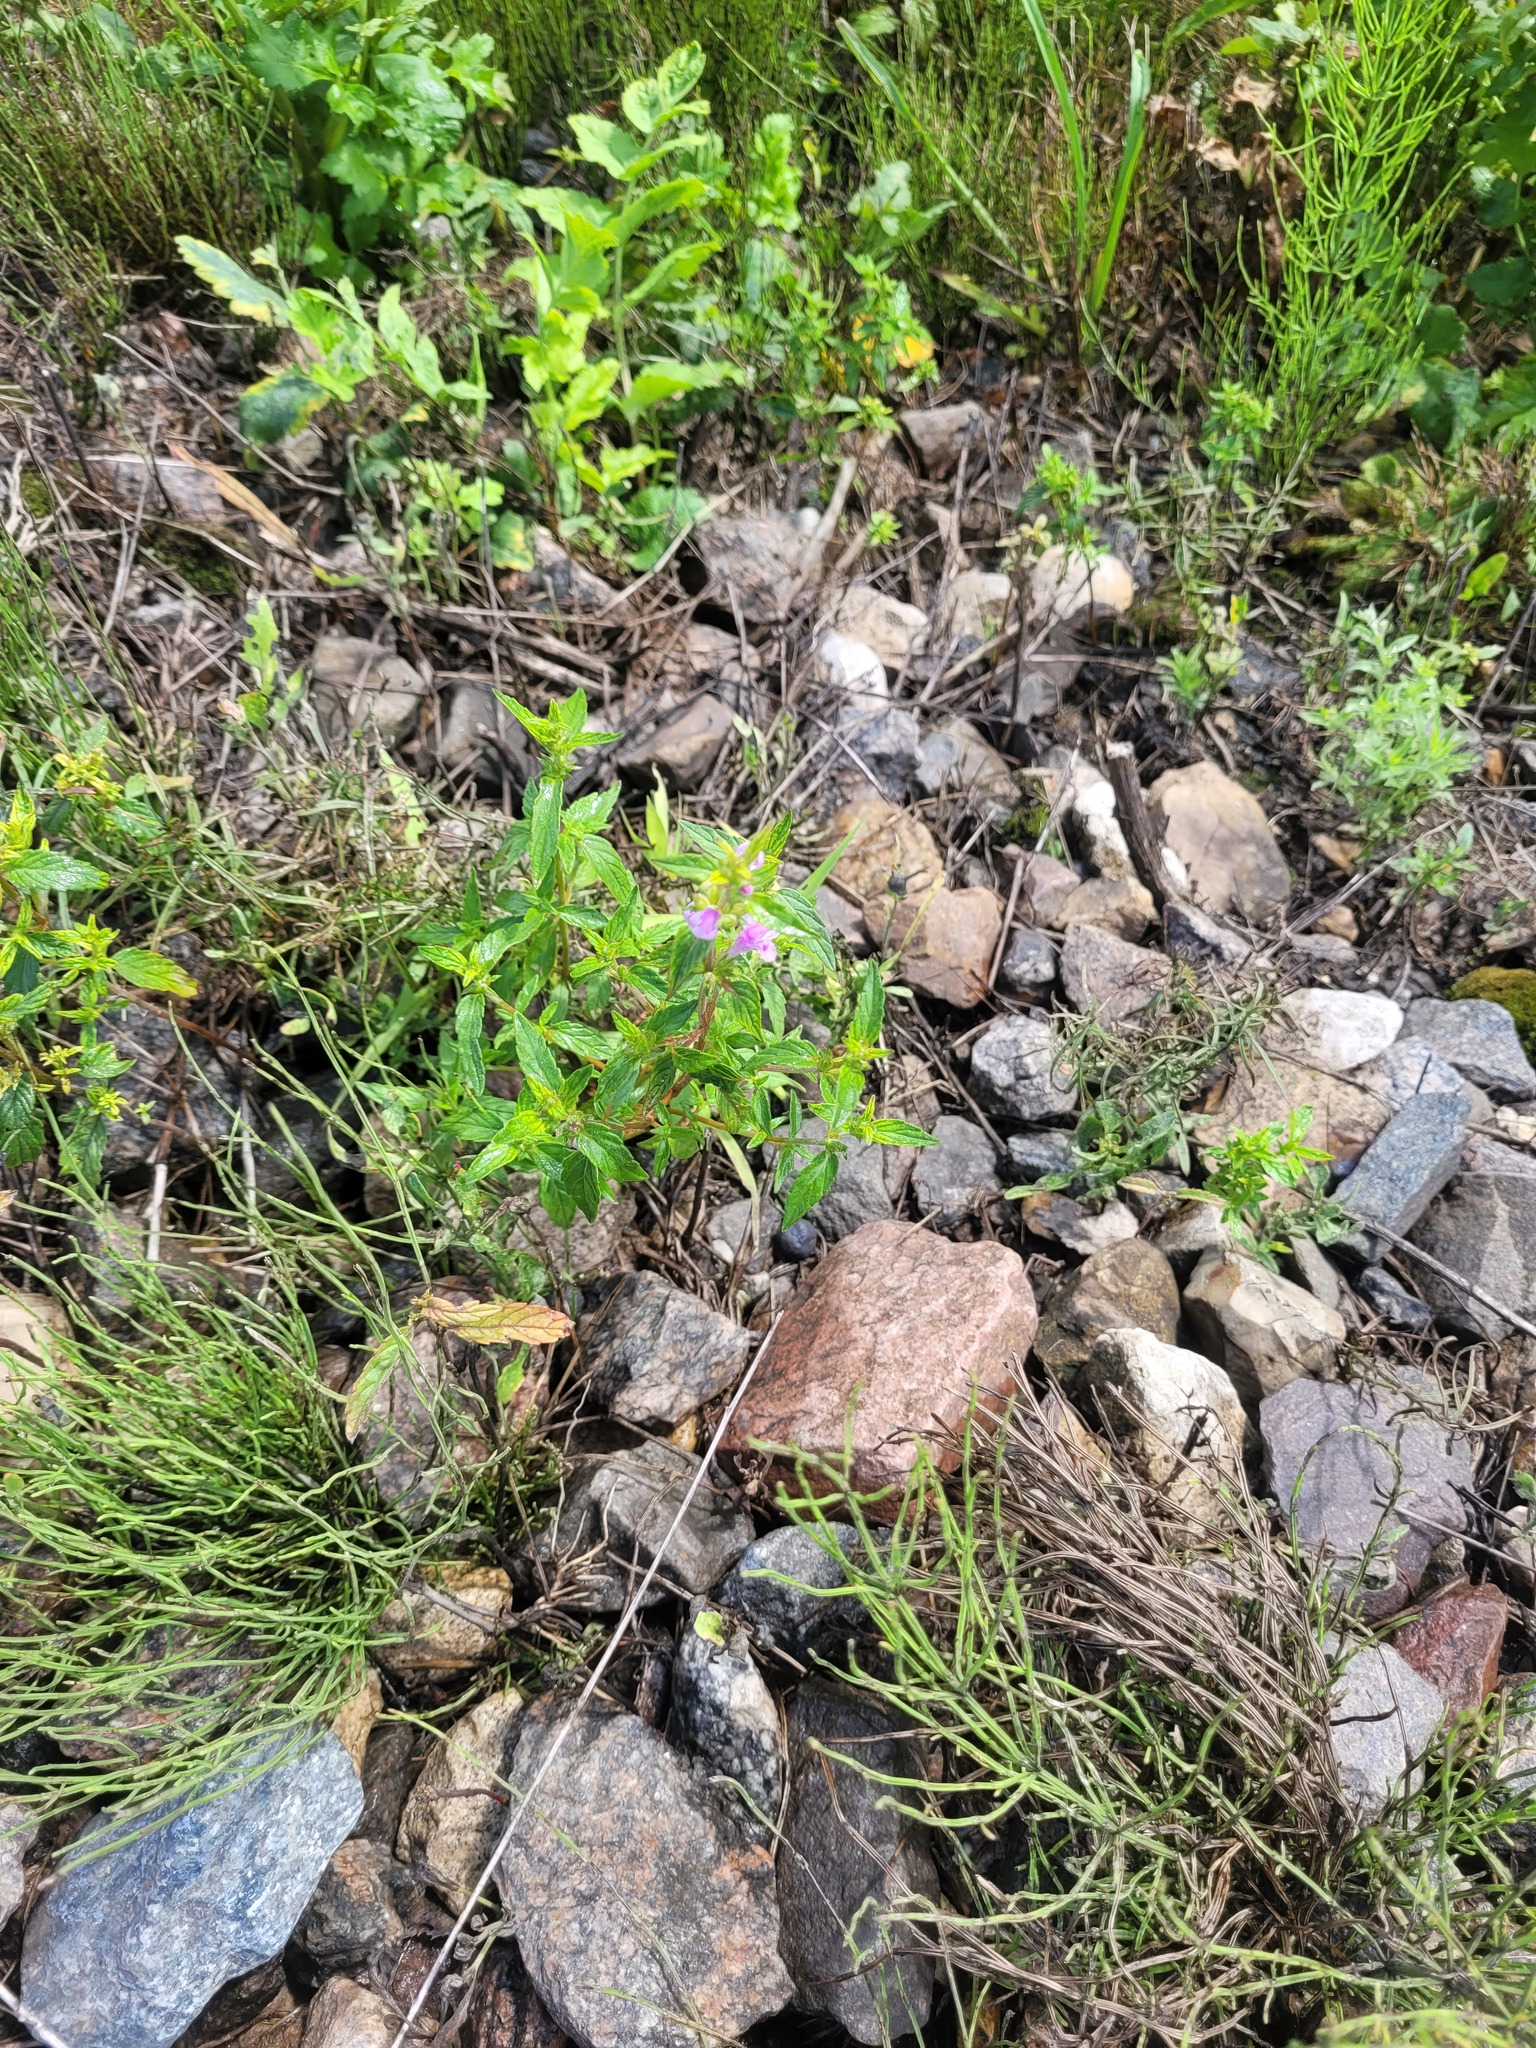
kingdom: Plantae
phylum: Tracheophyta
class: Magnoliopsida
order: Lamiales
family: Lamiaceae
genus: Galeopsis
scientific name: Galeopsis ladanum
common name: Broad-leaved hemp-nettle
